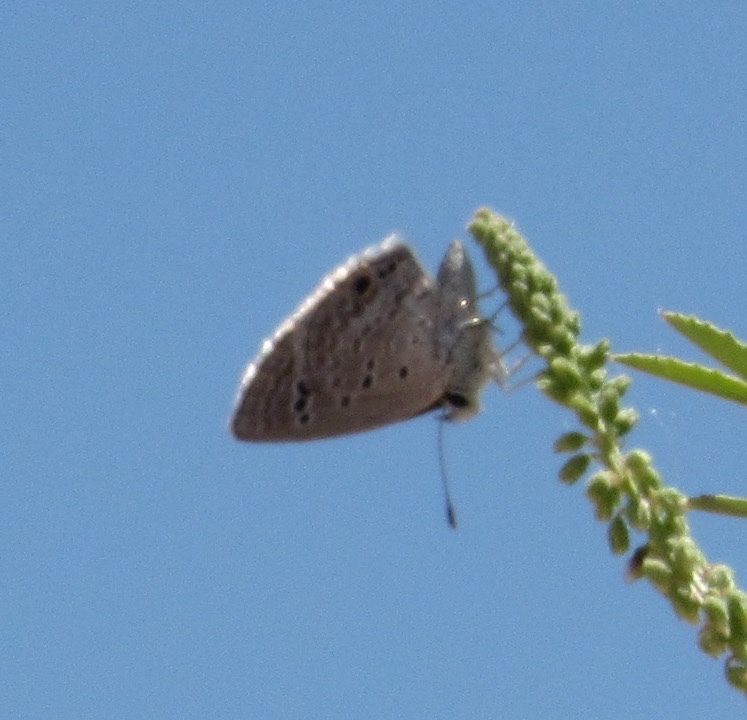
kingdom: Animalia
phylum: Arthropoda
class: Insecta
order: Lepidoptera
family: Lycaenidae
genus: Echinargus
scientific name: Echinargus isola
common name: Reakirt's blue
